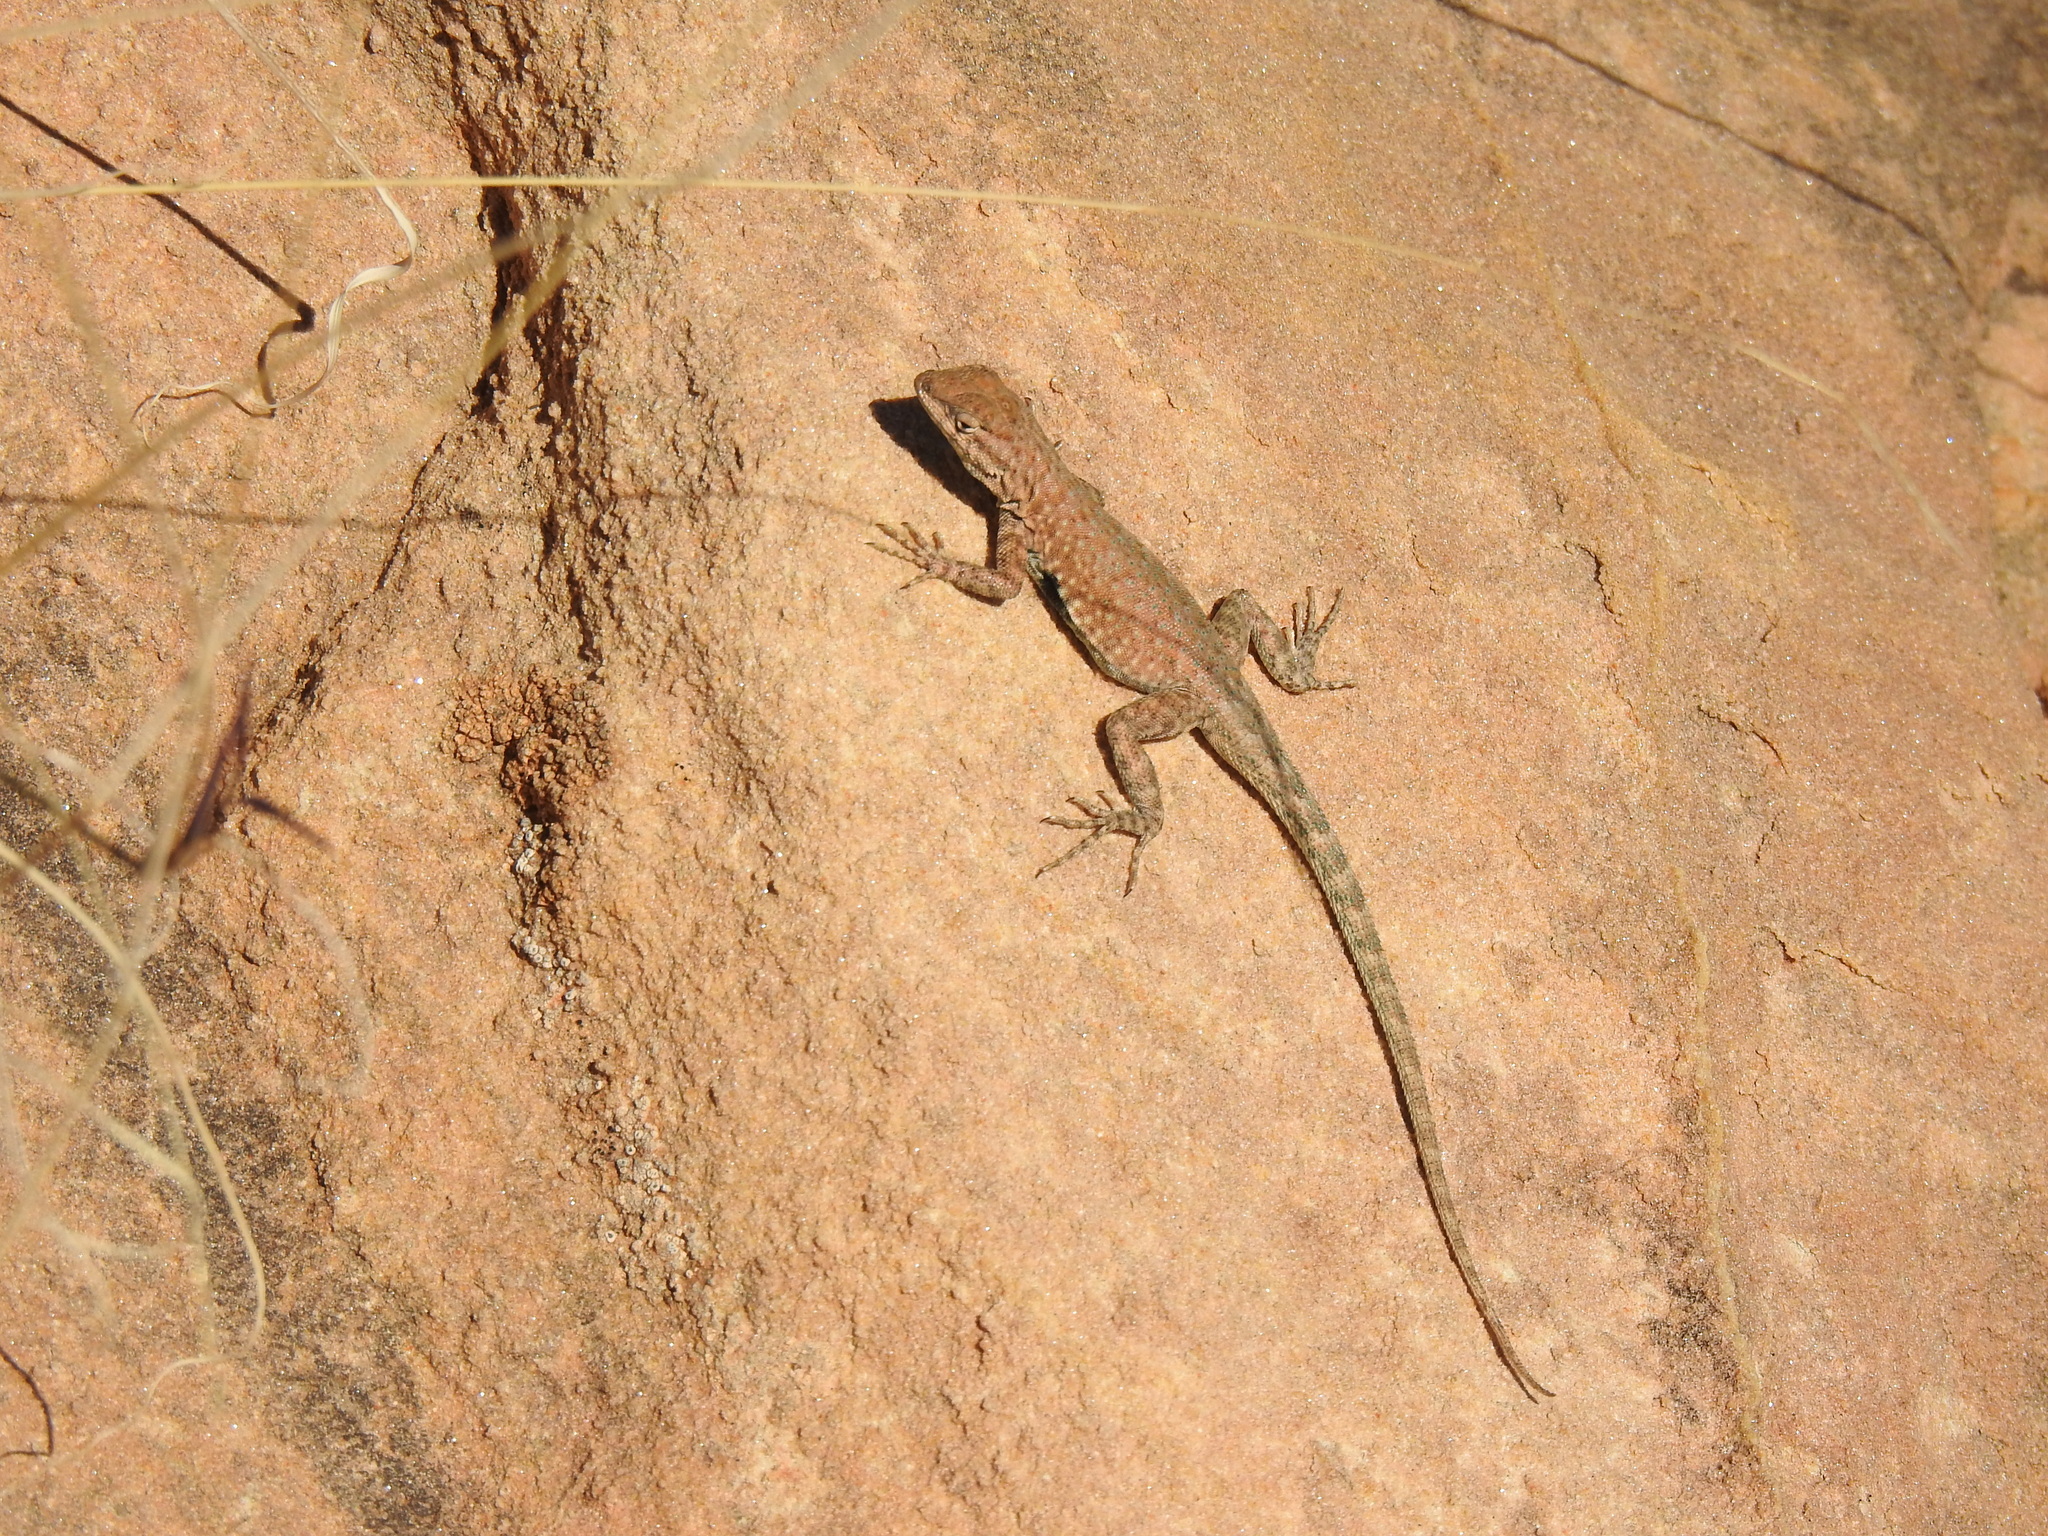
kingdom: Animalia
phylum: Chordata
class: Squamata
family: Phrynosomatidae
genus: Uta
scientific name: Uta stansburiana
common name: Side-blotched lizard
